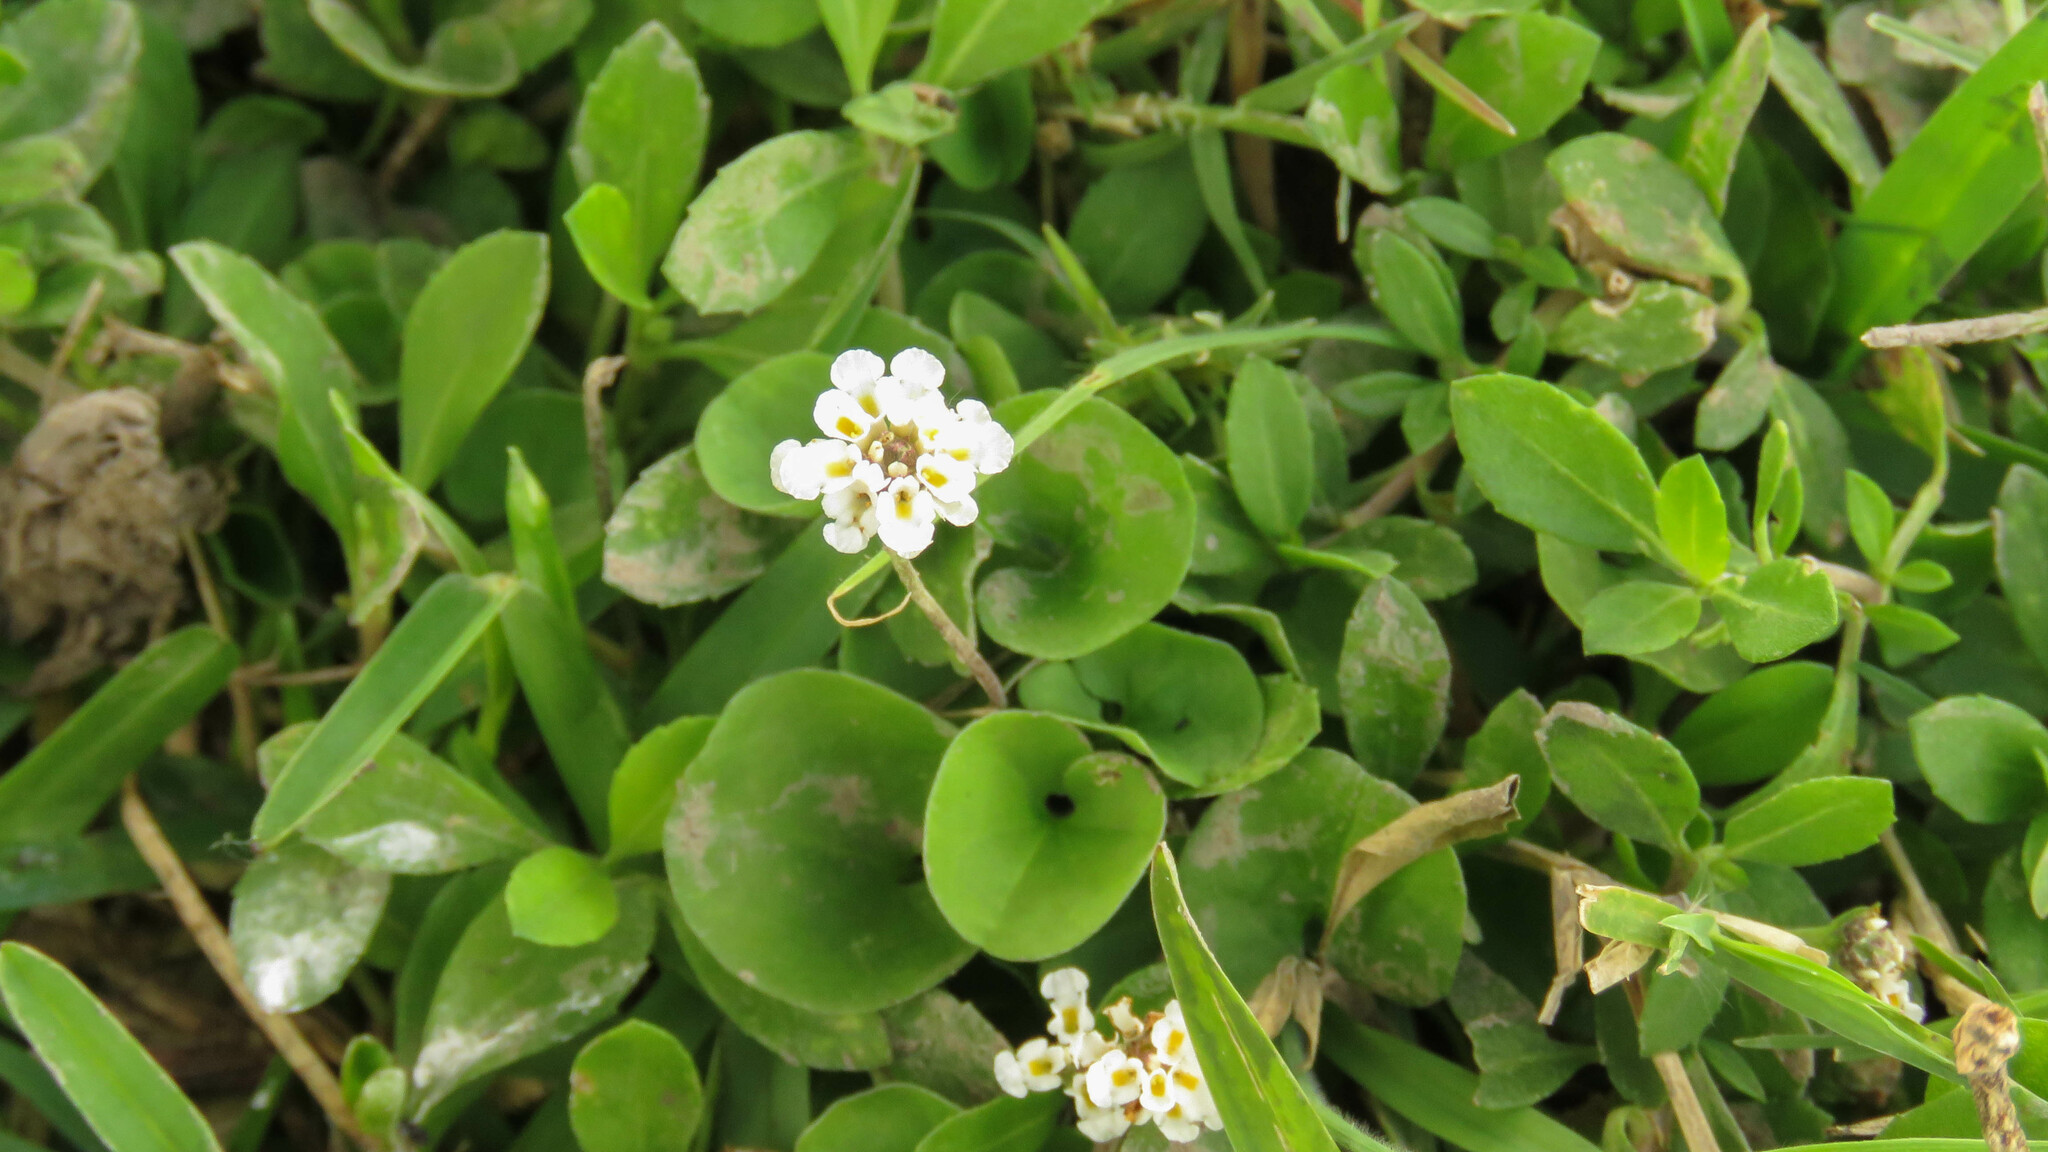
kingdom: Plantae
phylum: Tracheophyta
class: Magnoliopsida
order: Lamiales
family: Verbenaceae
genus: Phyla
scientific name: Phyla nodiflora
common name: Frogfruit
